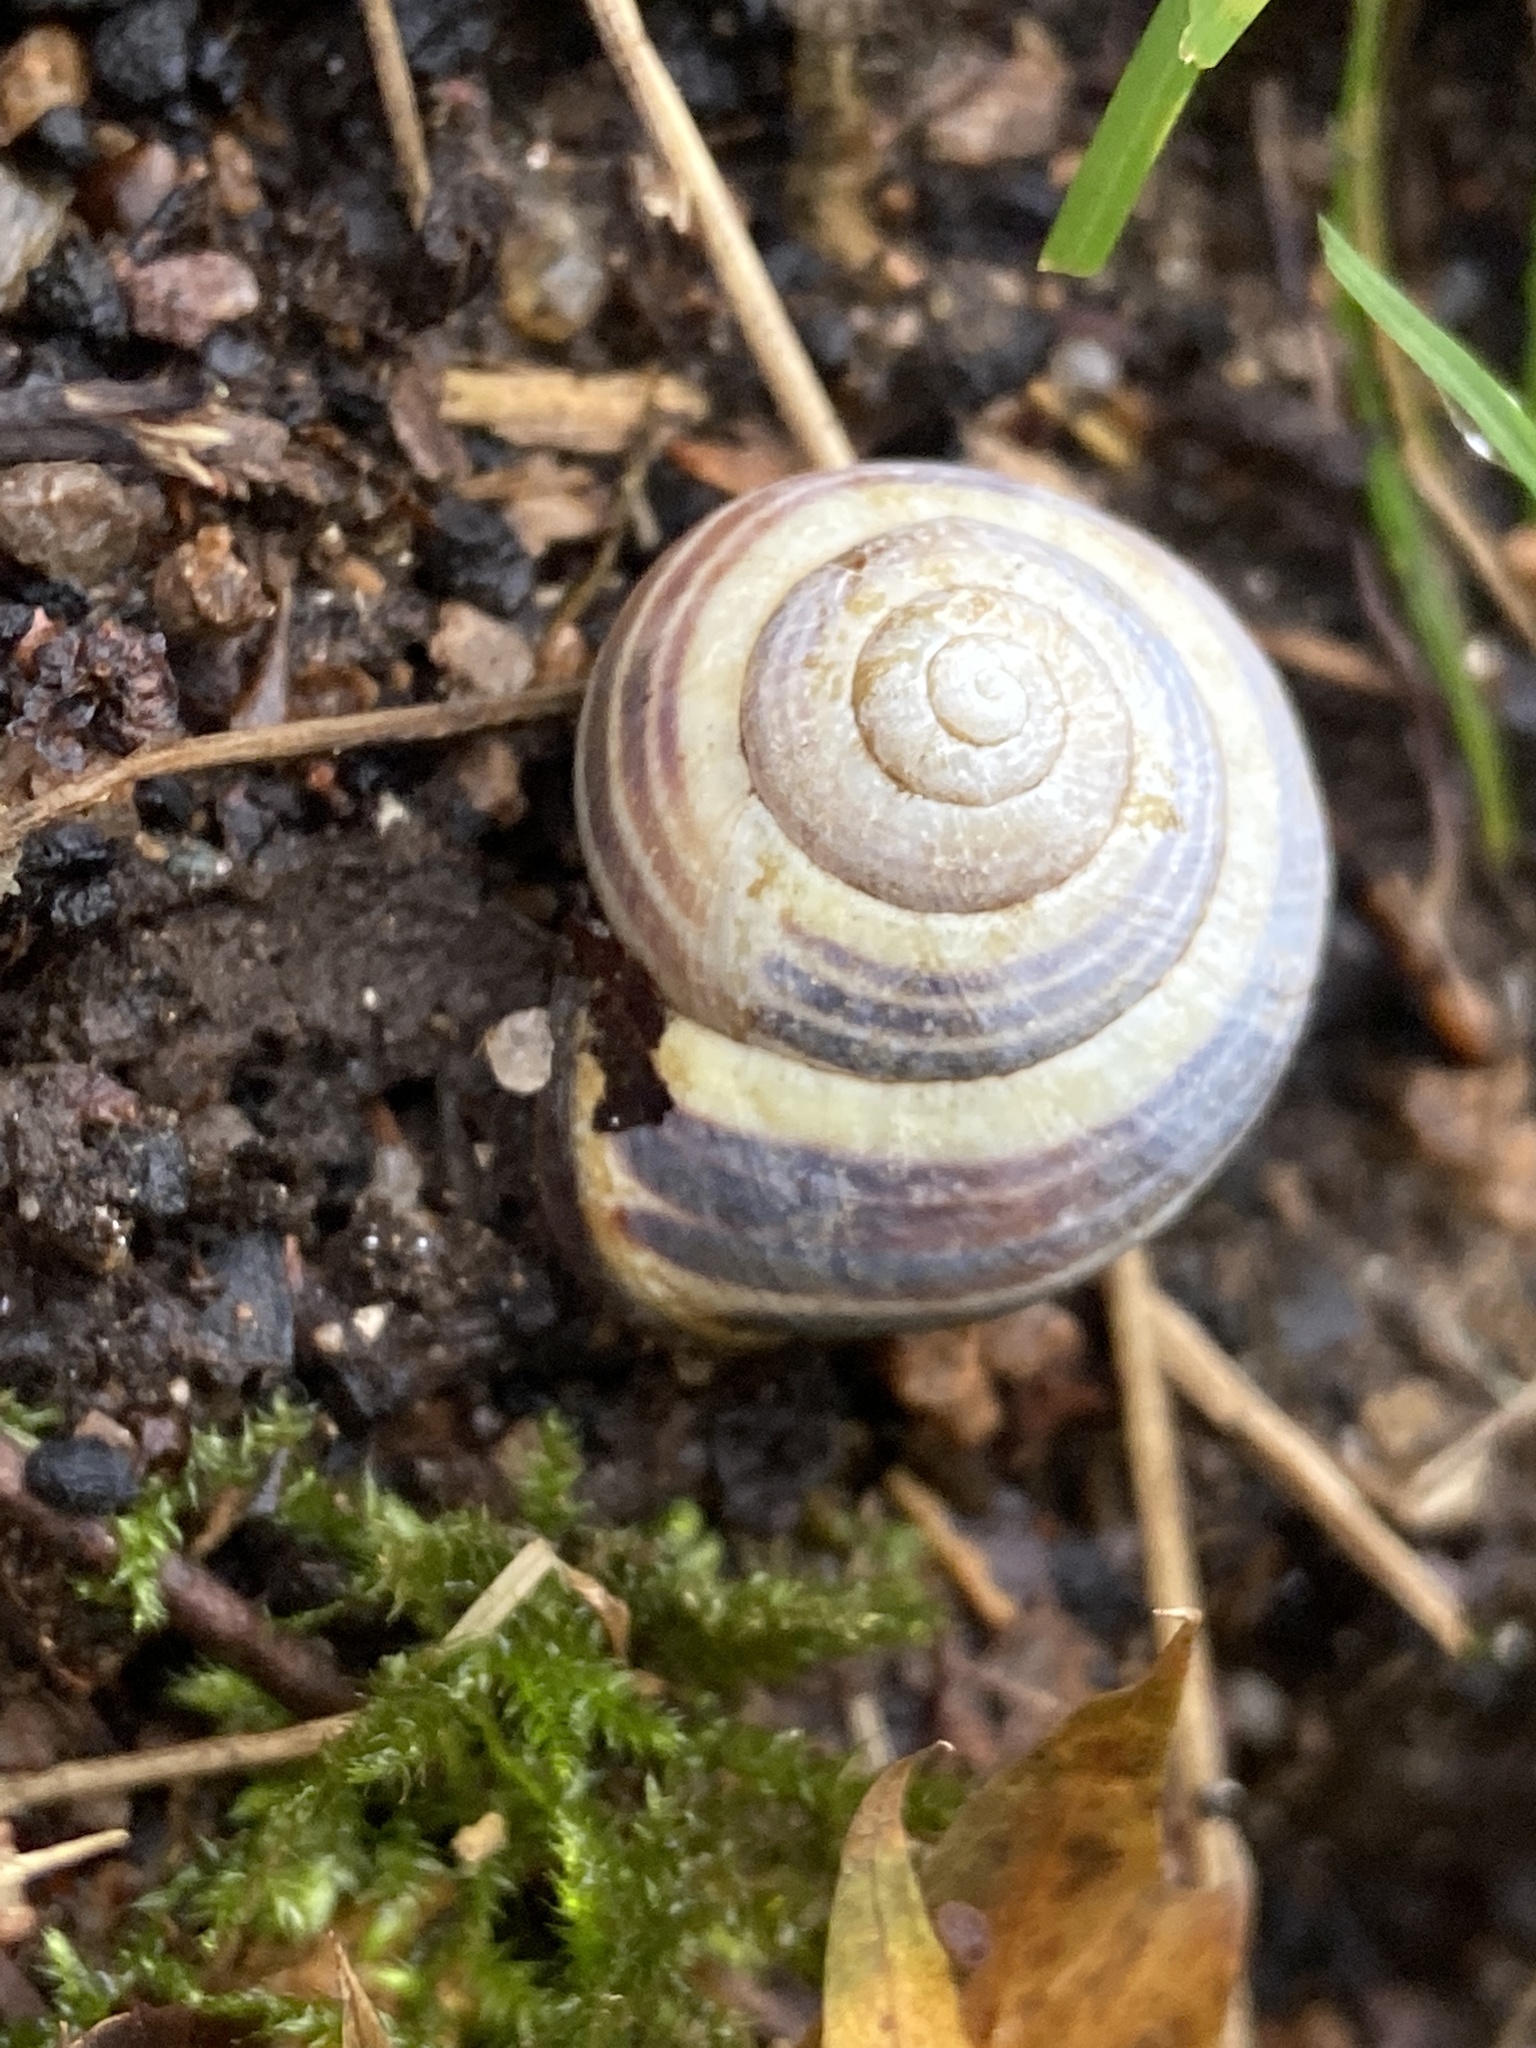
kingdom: Animalia
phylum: Mollusca
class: Gastropoda
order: Stylommatophora
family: Helicidae
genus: Cepaea
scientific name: Cepaea nemoralis
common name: Grovesnail
